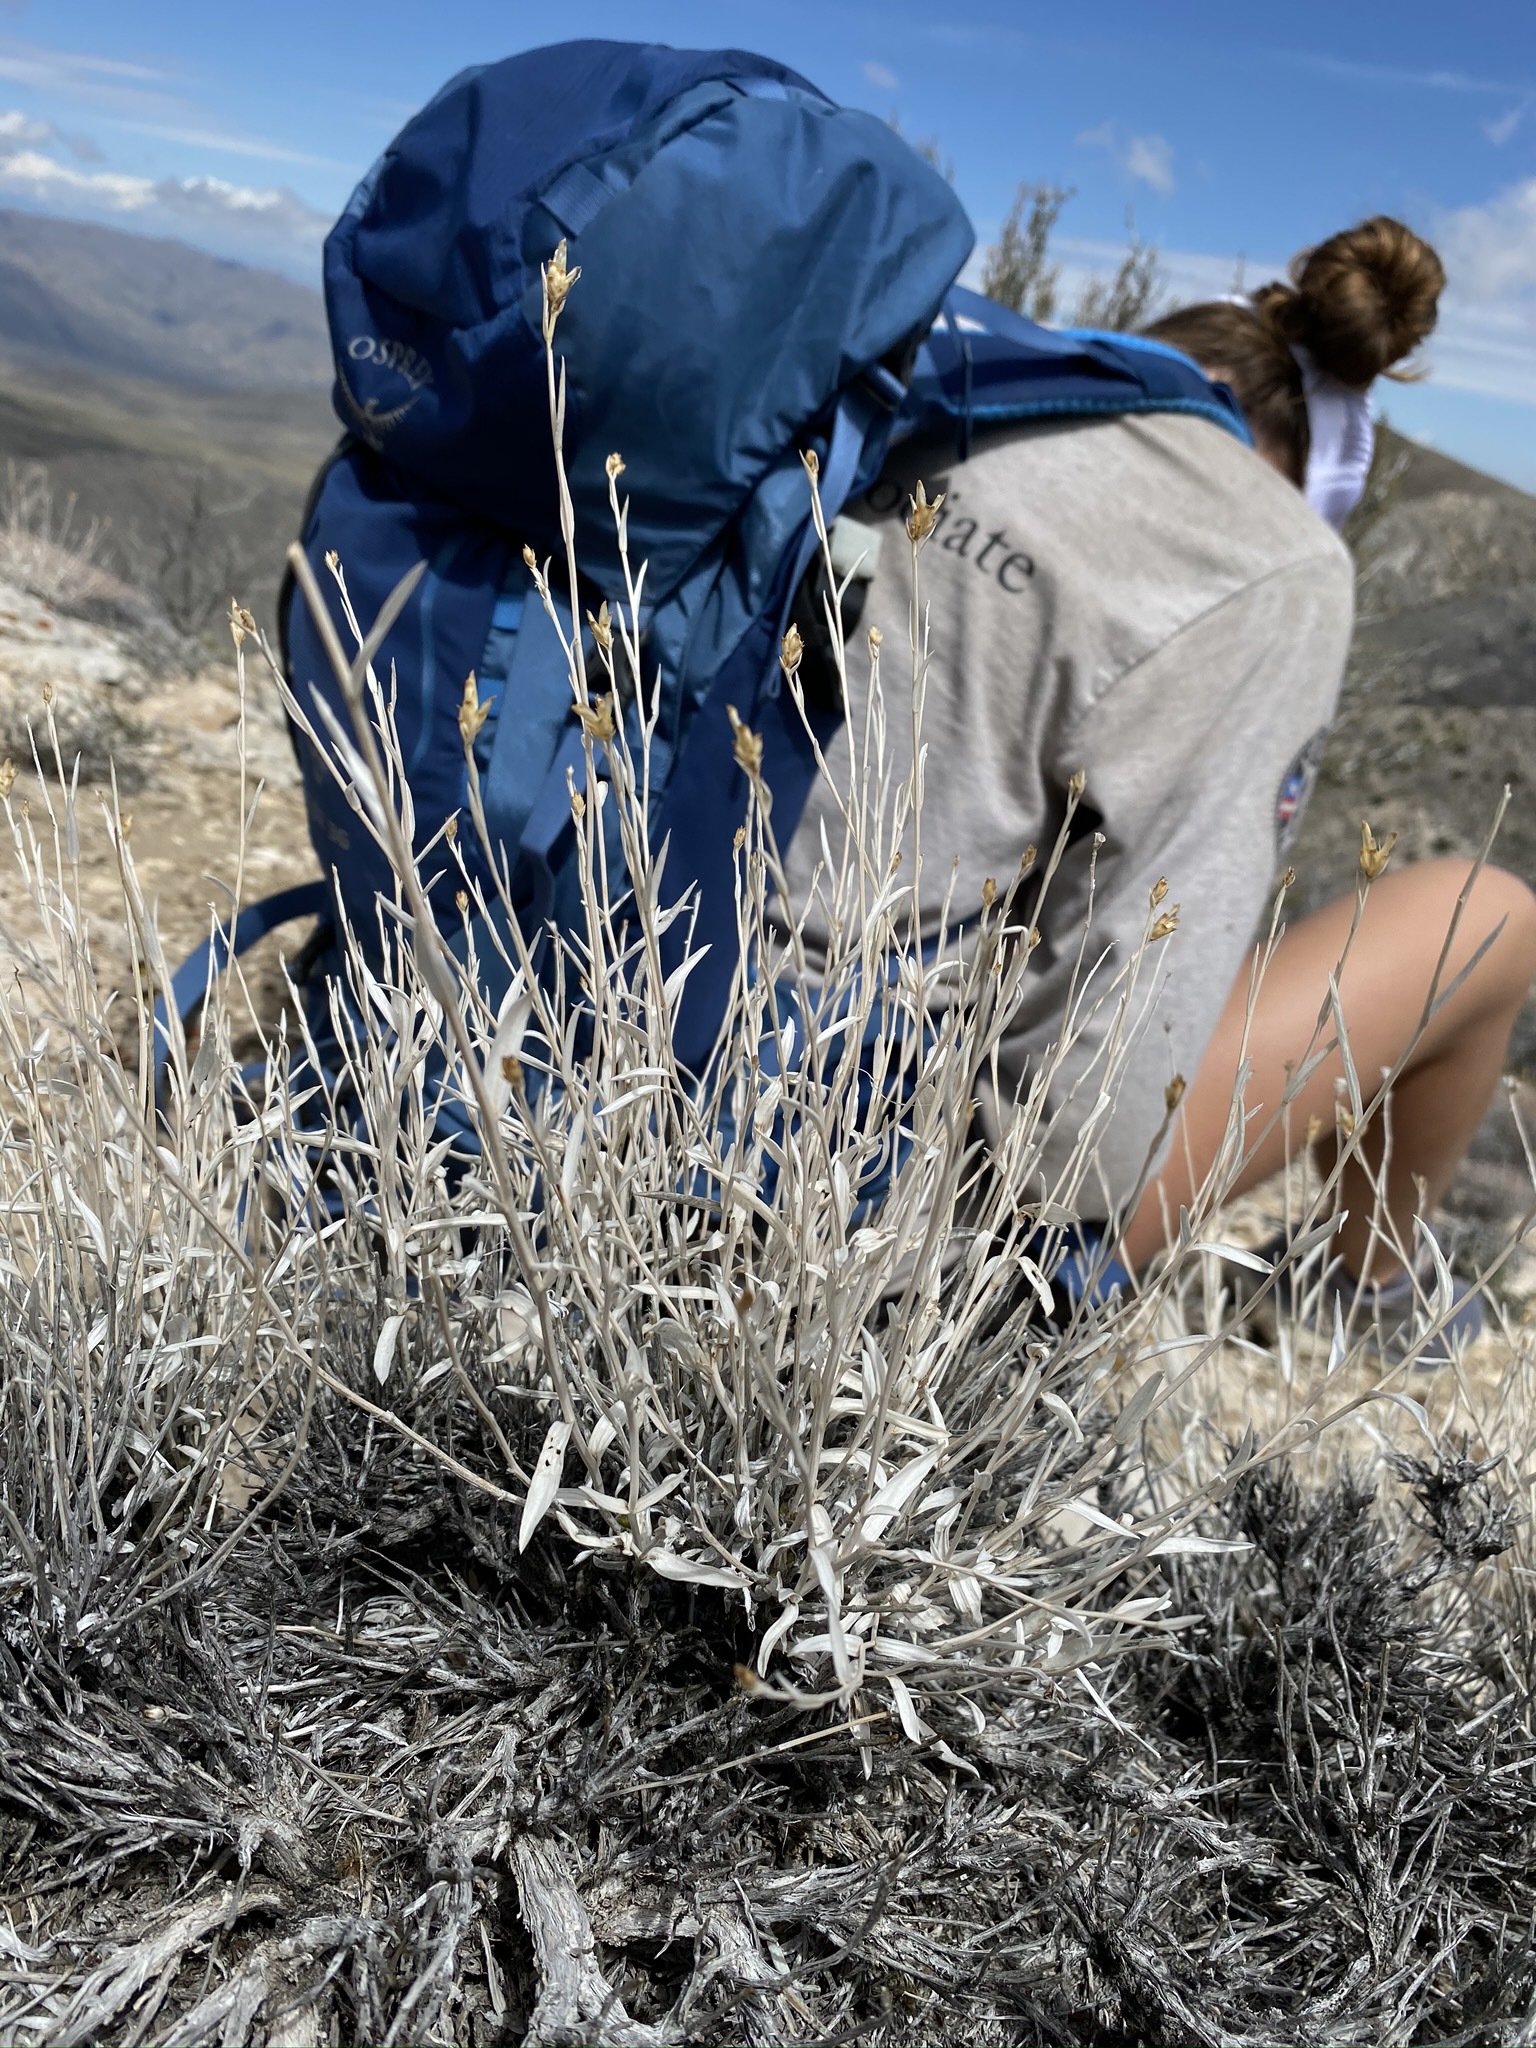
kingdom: Plantae
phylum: Tracheophyta
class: Magnoliopsida
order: Asterales
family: Asteraceae
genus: Cuniculotinus
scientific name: Cuniculotinus gramineus
